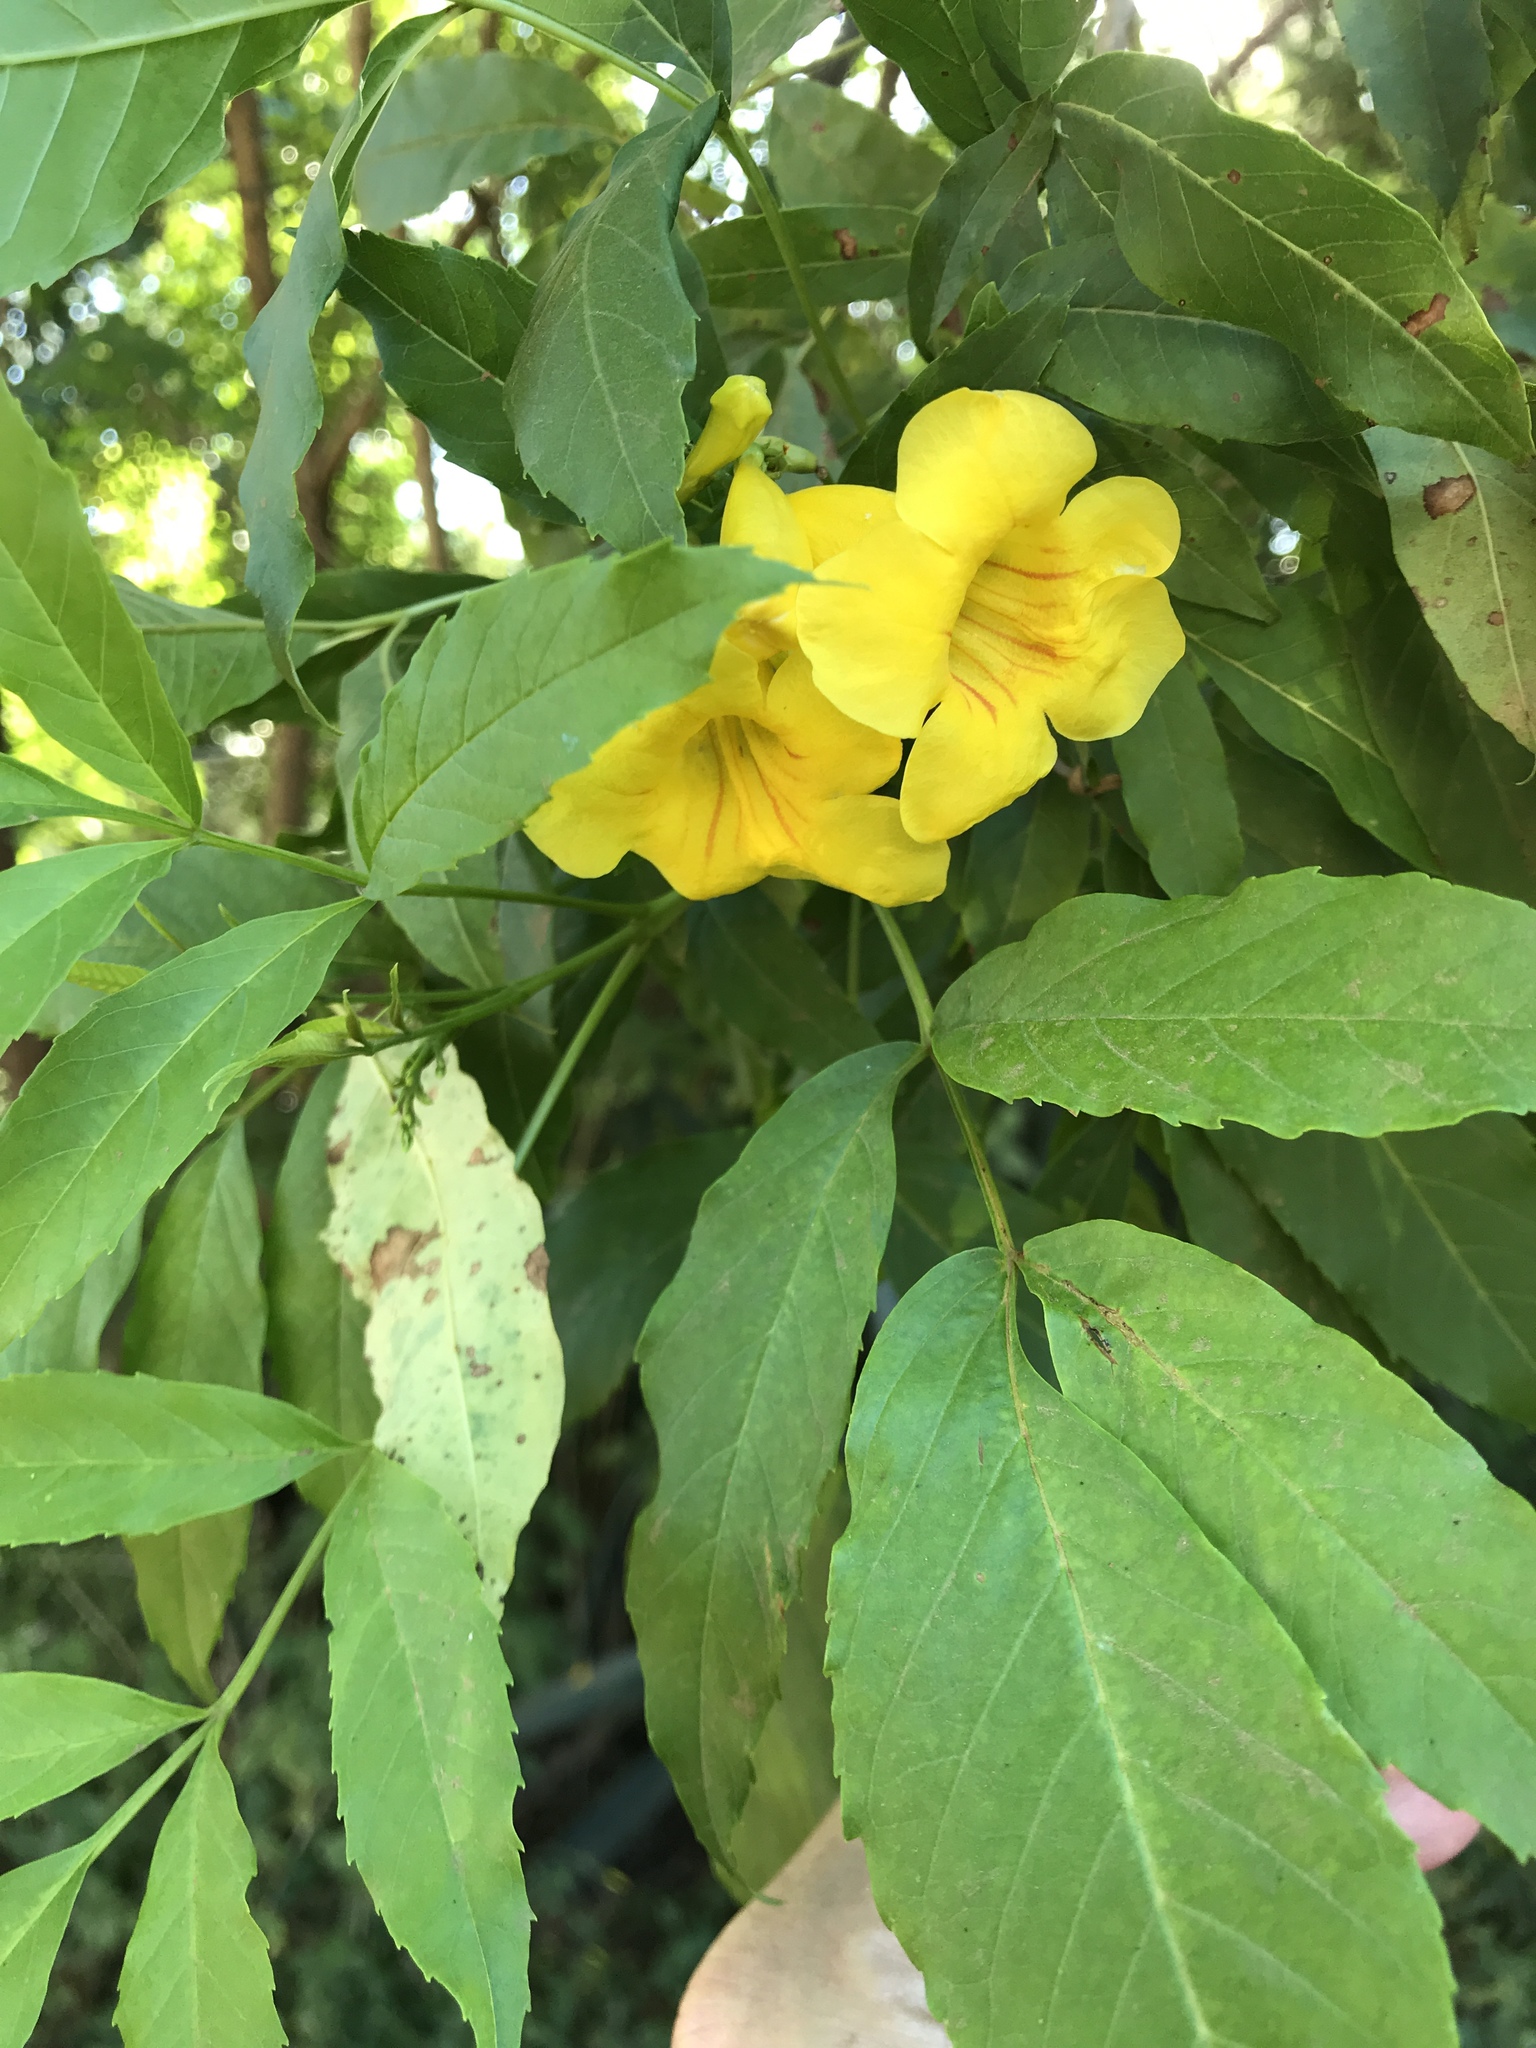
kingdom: Plantae
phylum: Tracheophyta
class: Magnoliopsida
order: Lamiales
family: Bignoniaceae
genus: Tecoma
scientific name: Tecoma stans
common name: Yellow trumpetbush
